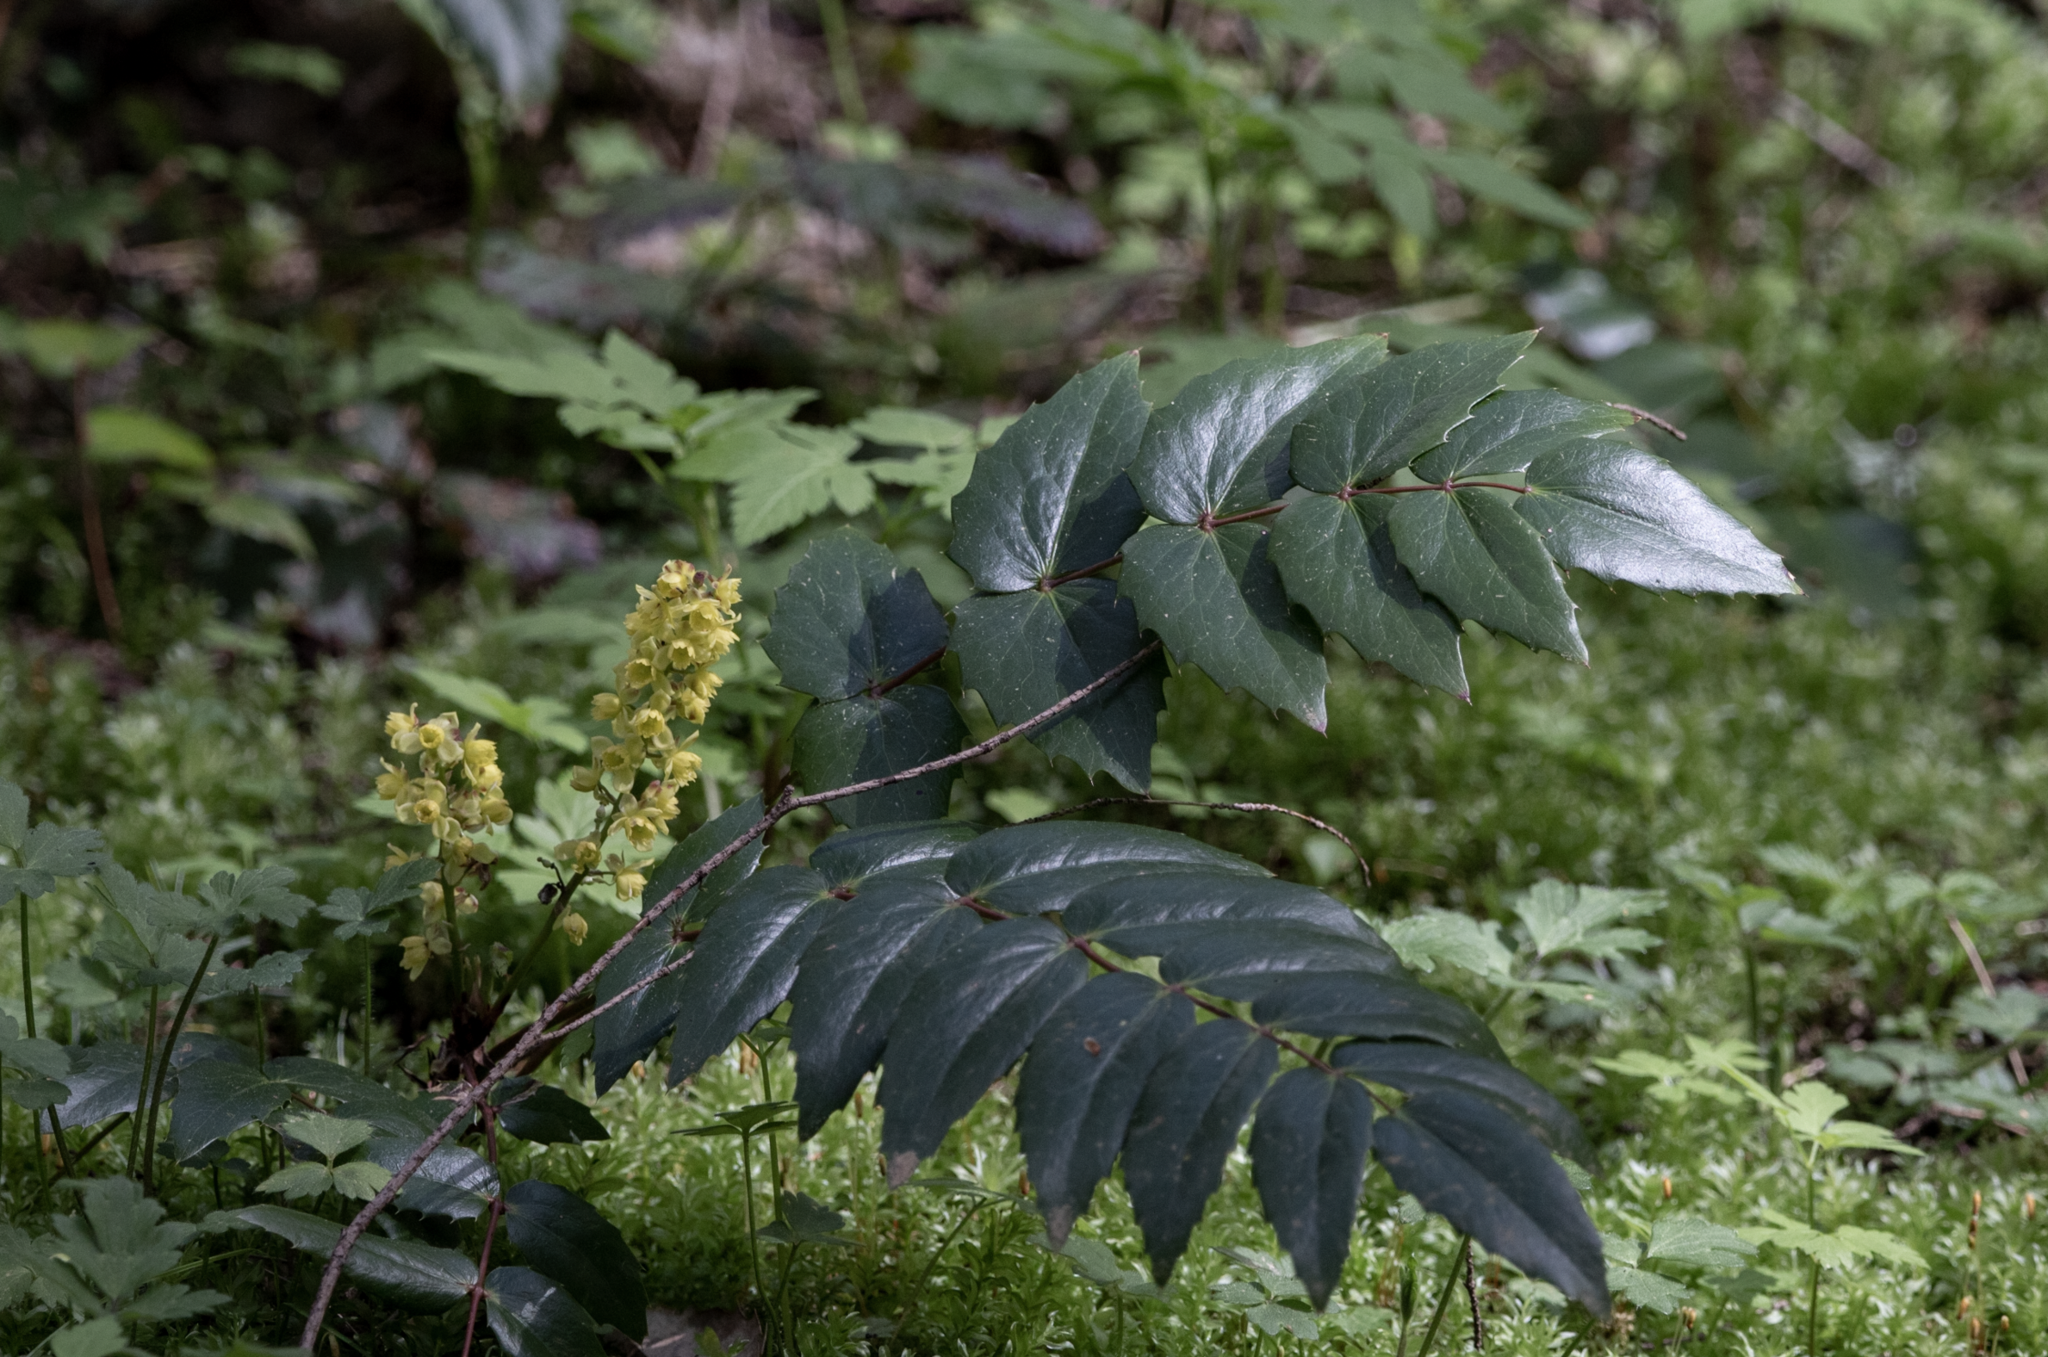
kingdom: Plantae
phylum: Tracheophyta
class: Magnoliopsida
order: Ranunculales
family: Berberidaceae
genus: Mahonia
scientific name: Mahonia nervosa
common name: Cascade oregon-grape
